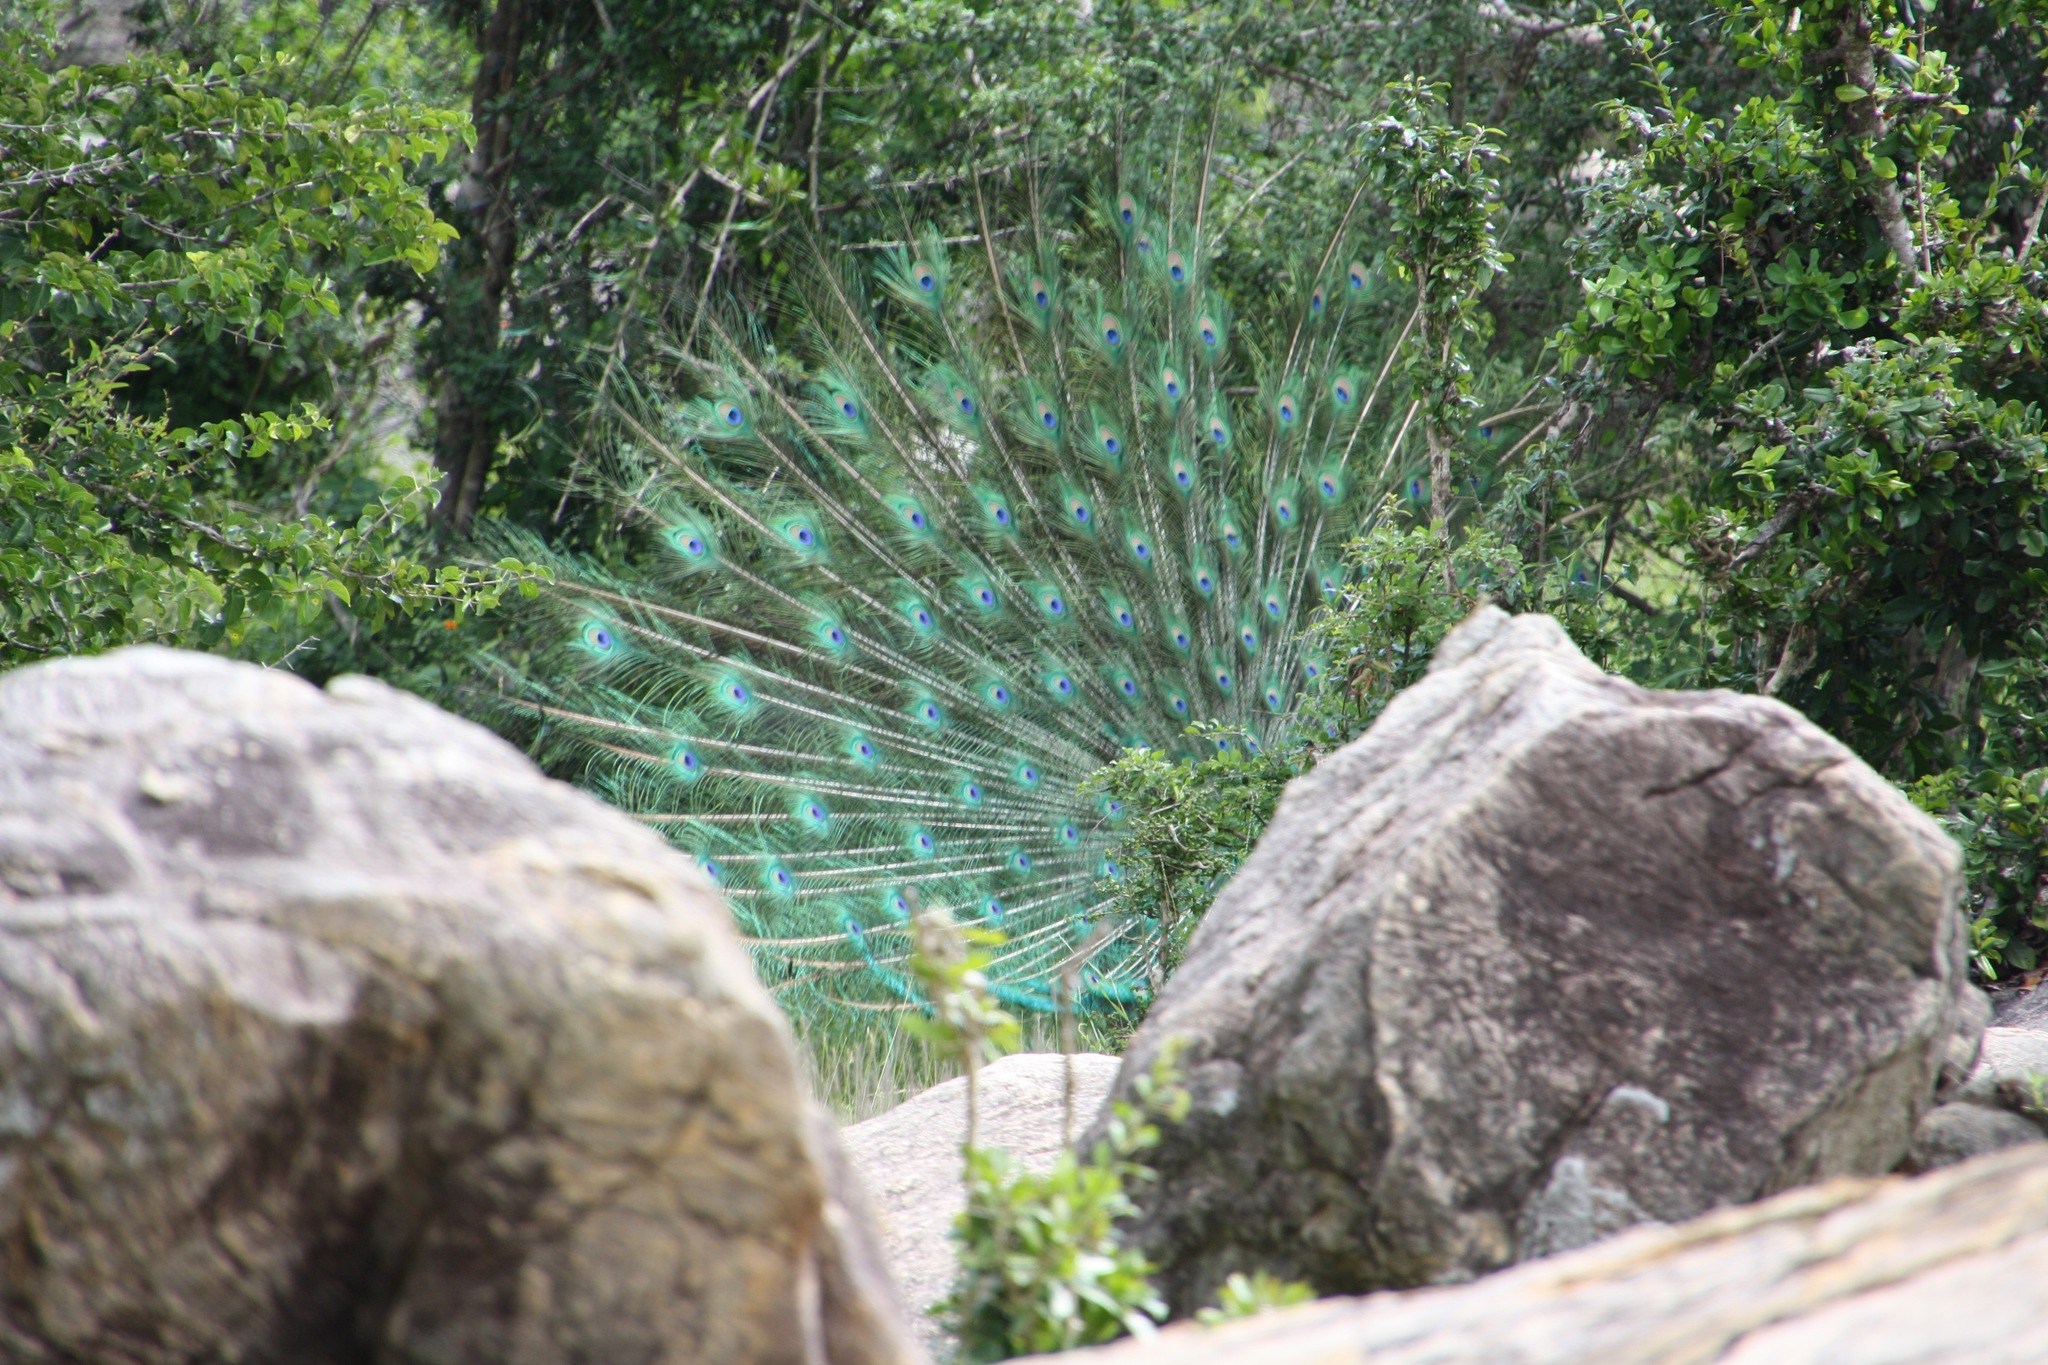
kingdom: Animalia
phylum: Chordata
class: Aves
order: Galliformes
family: Phasianidae
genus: Pavo
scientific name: Pavo cristatus
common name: Indian peafowl
